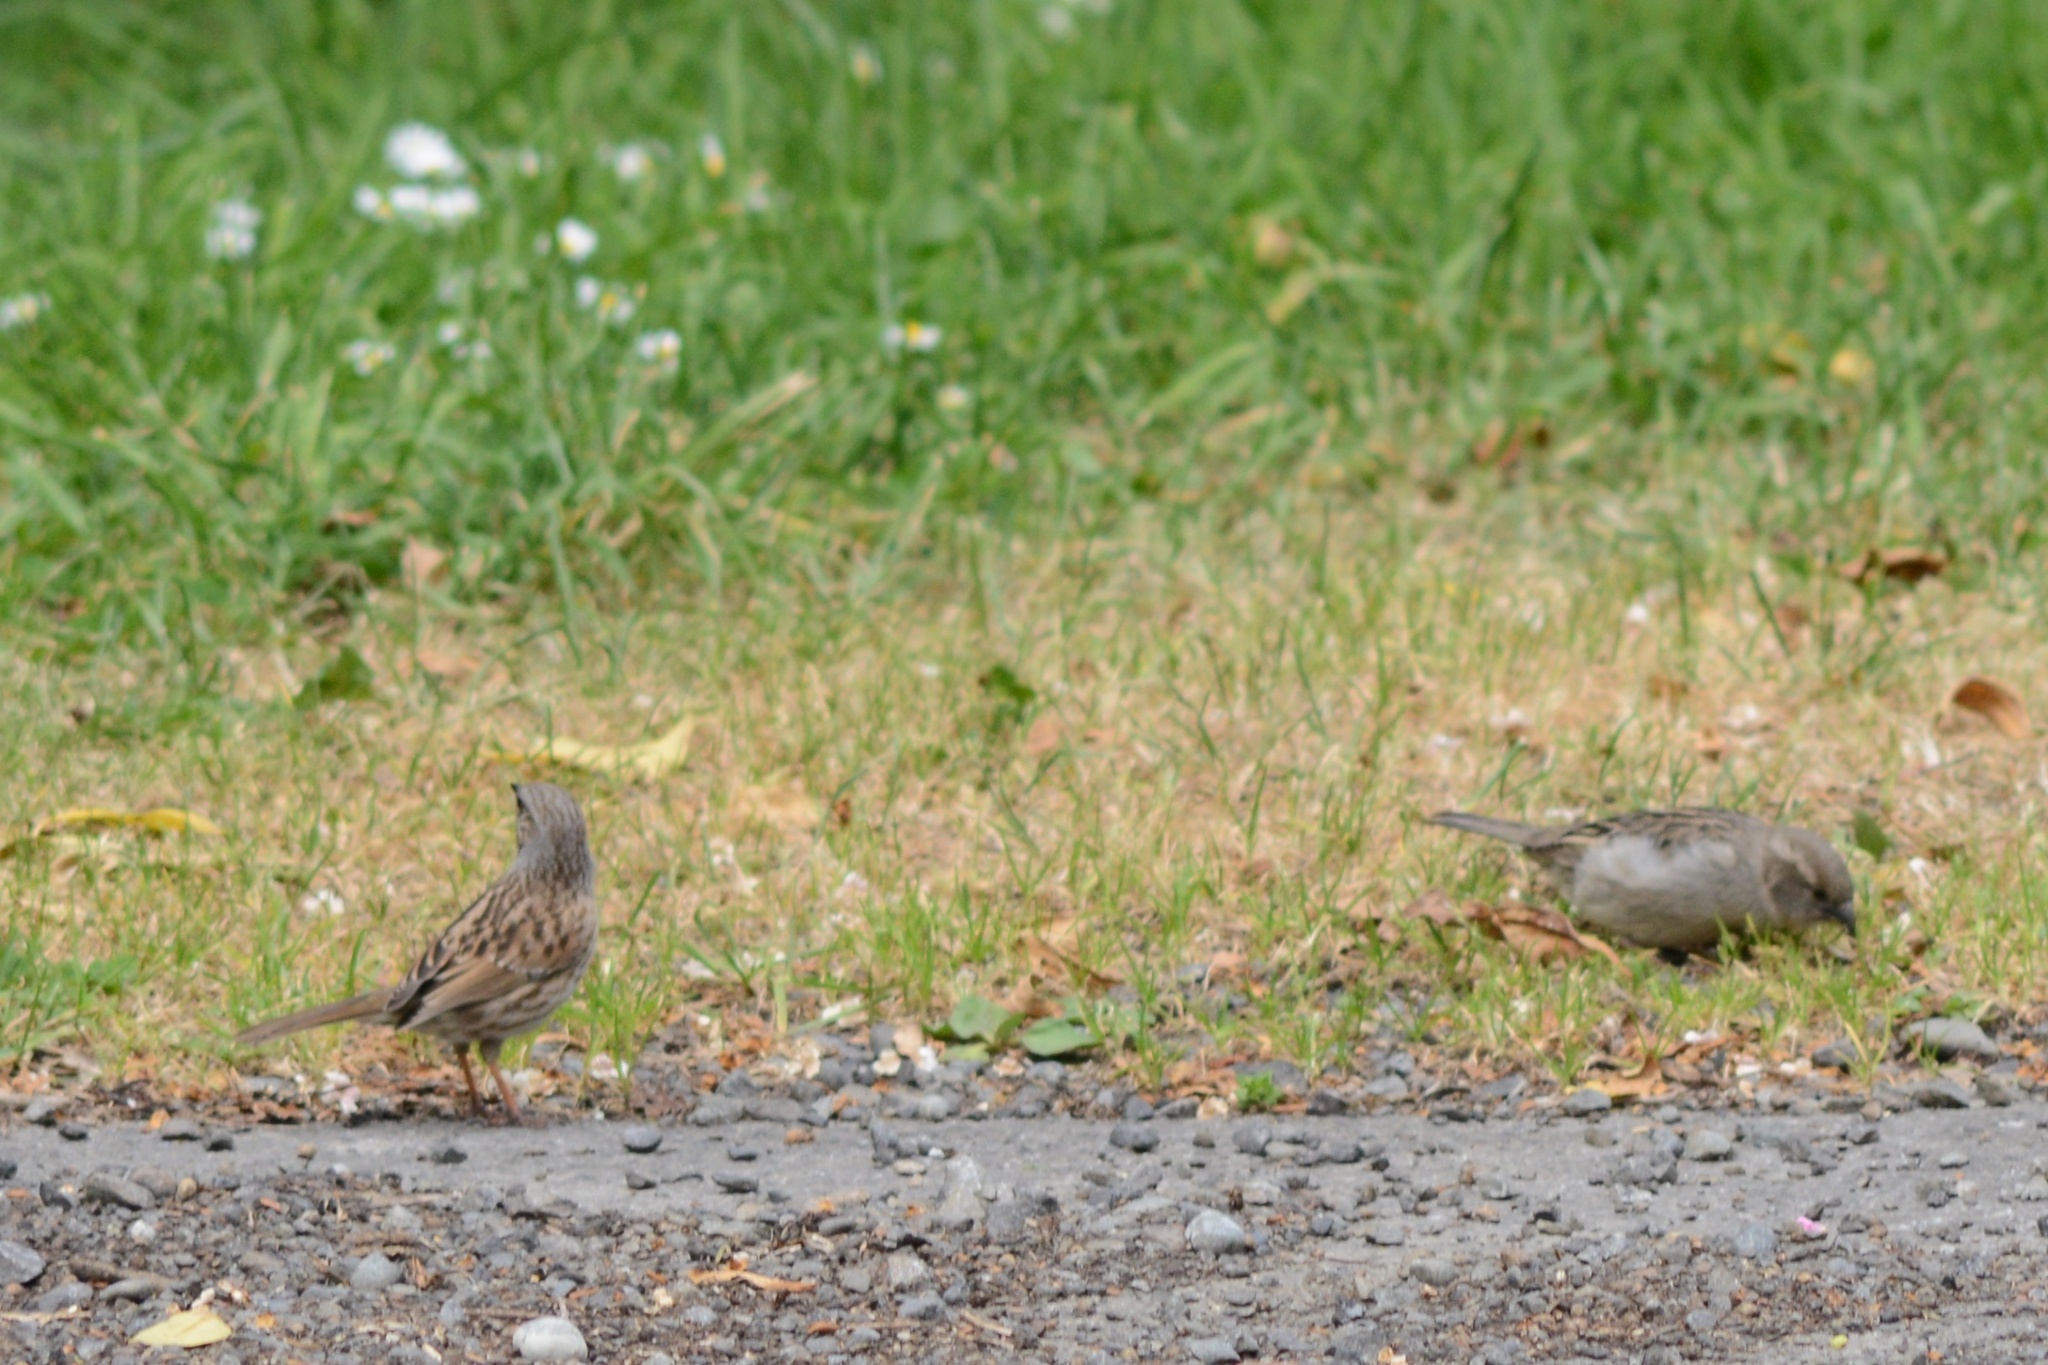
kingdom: Animalia
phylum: Chordata
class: Aves
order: Passeriformes
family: Prunellidae
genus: Prunella
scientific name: Prunella modularis
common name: Dunnock
